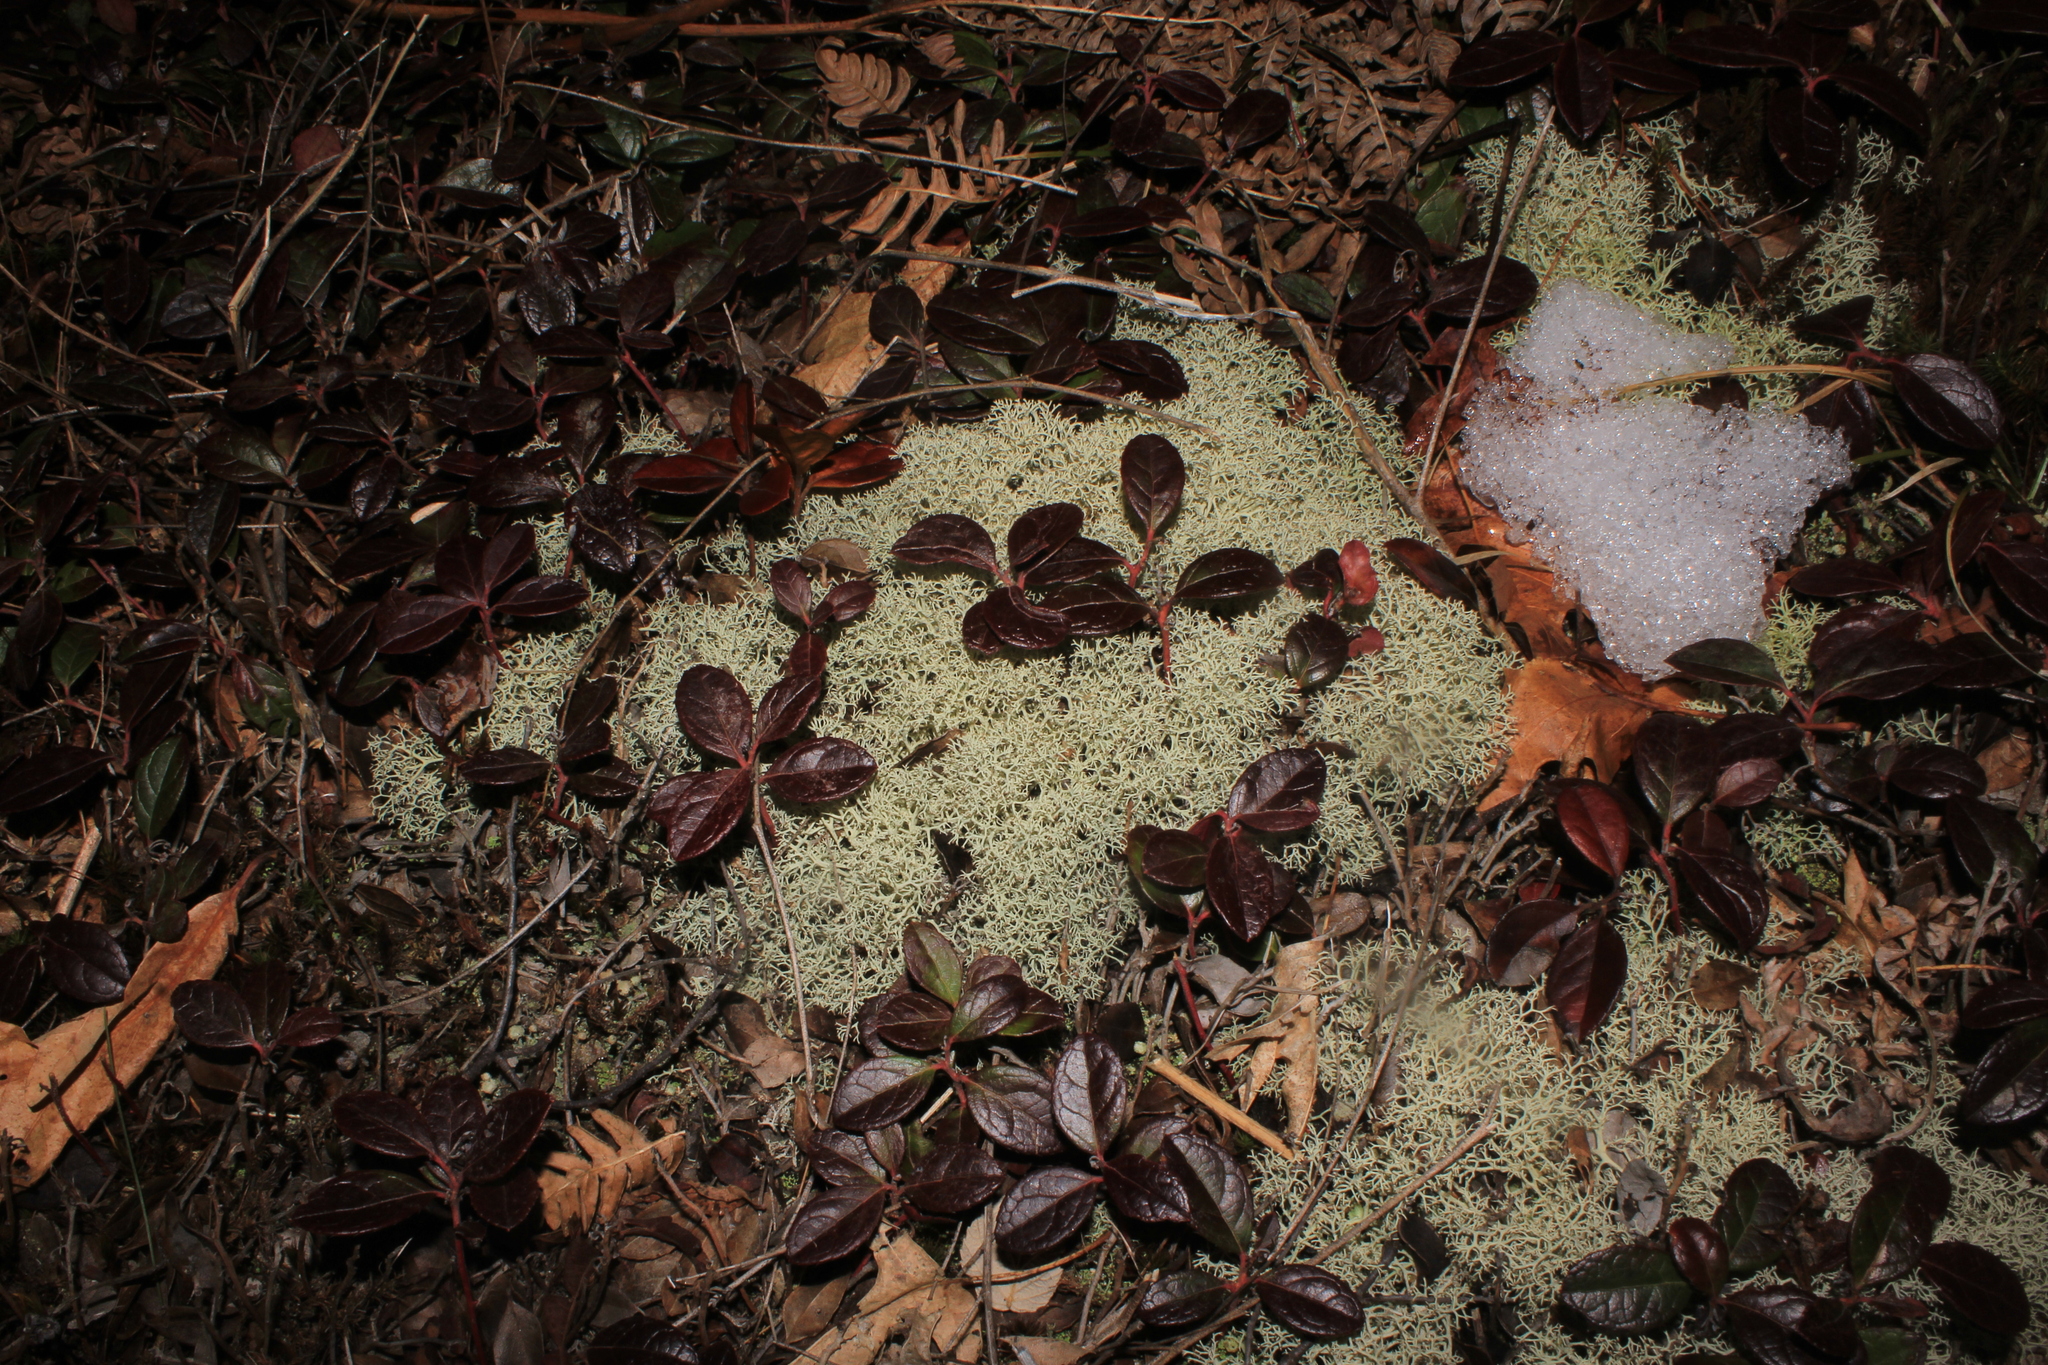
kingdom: Plantae
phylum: Tracheophyta
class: Magnoliopsida
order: Ericales
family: Ericaceae
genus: Gaultheria
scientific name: Gaultheria procumbens
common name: Checkerberry
